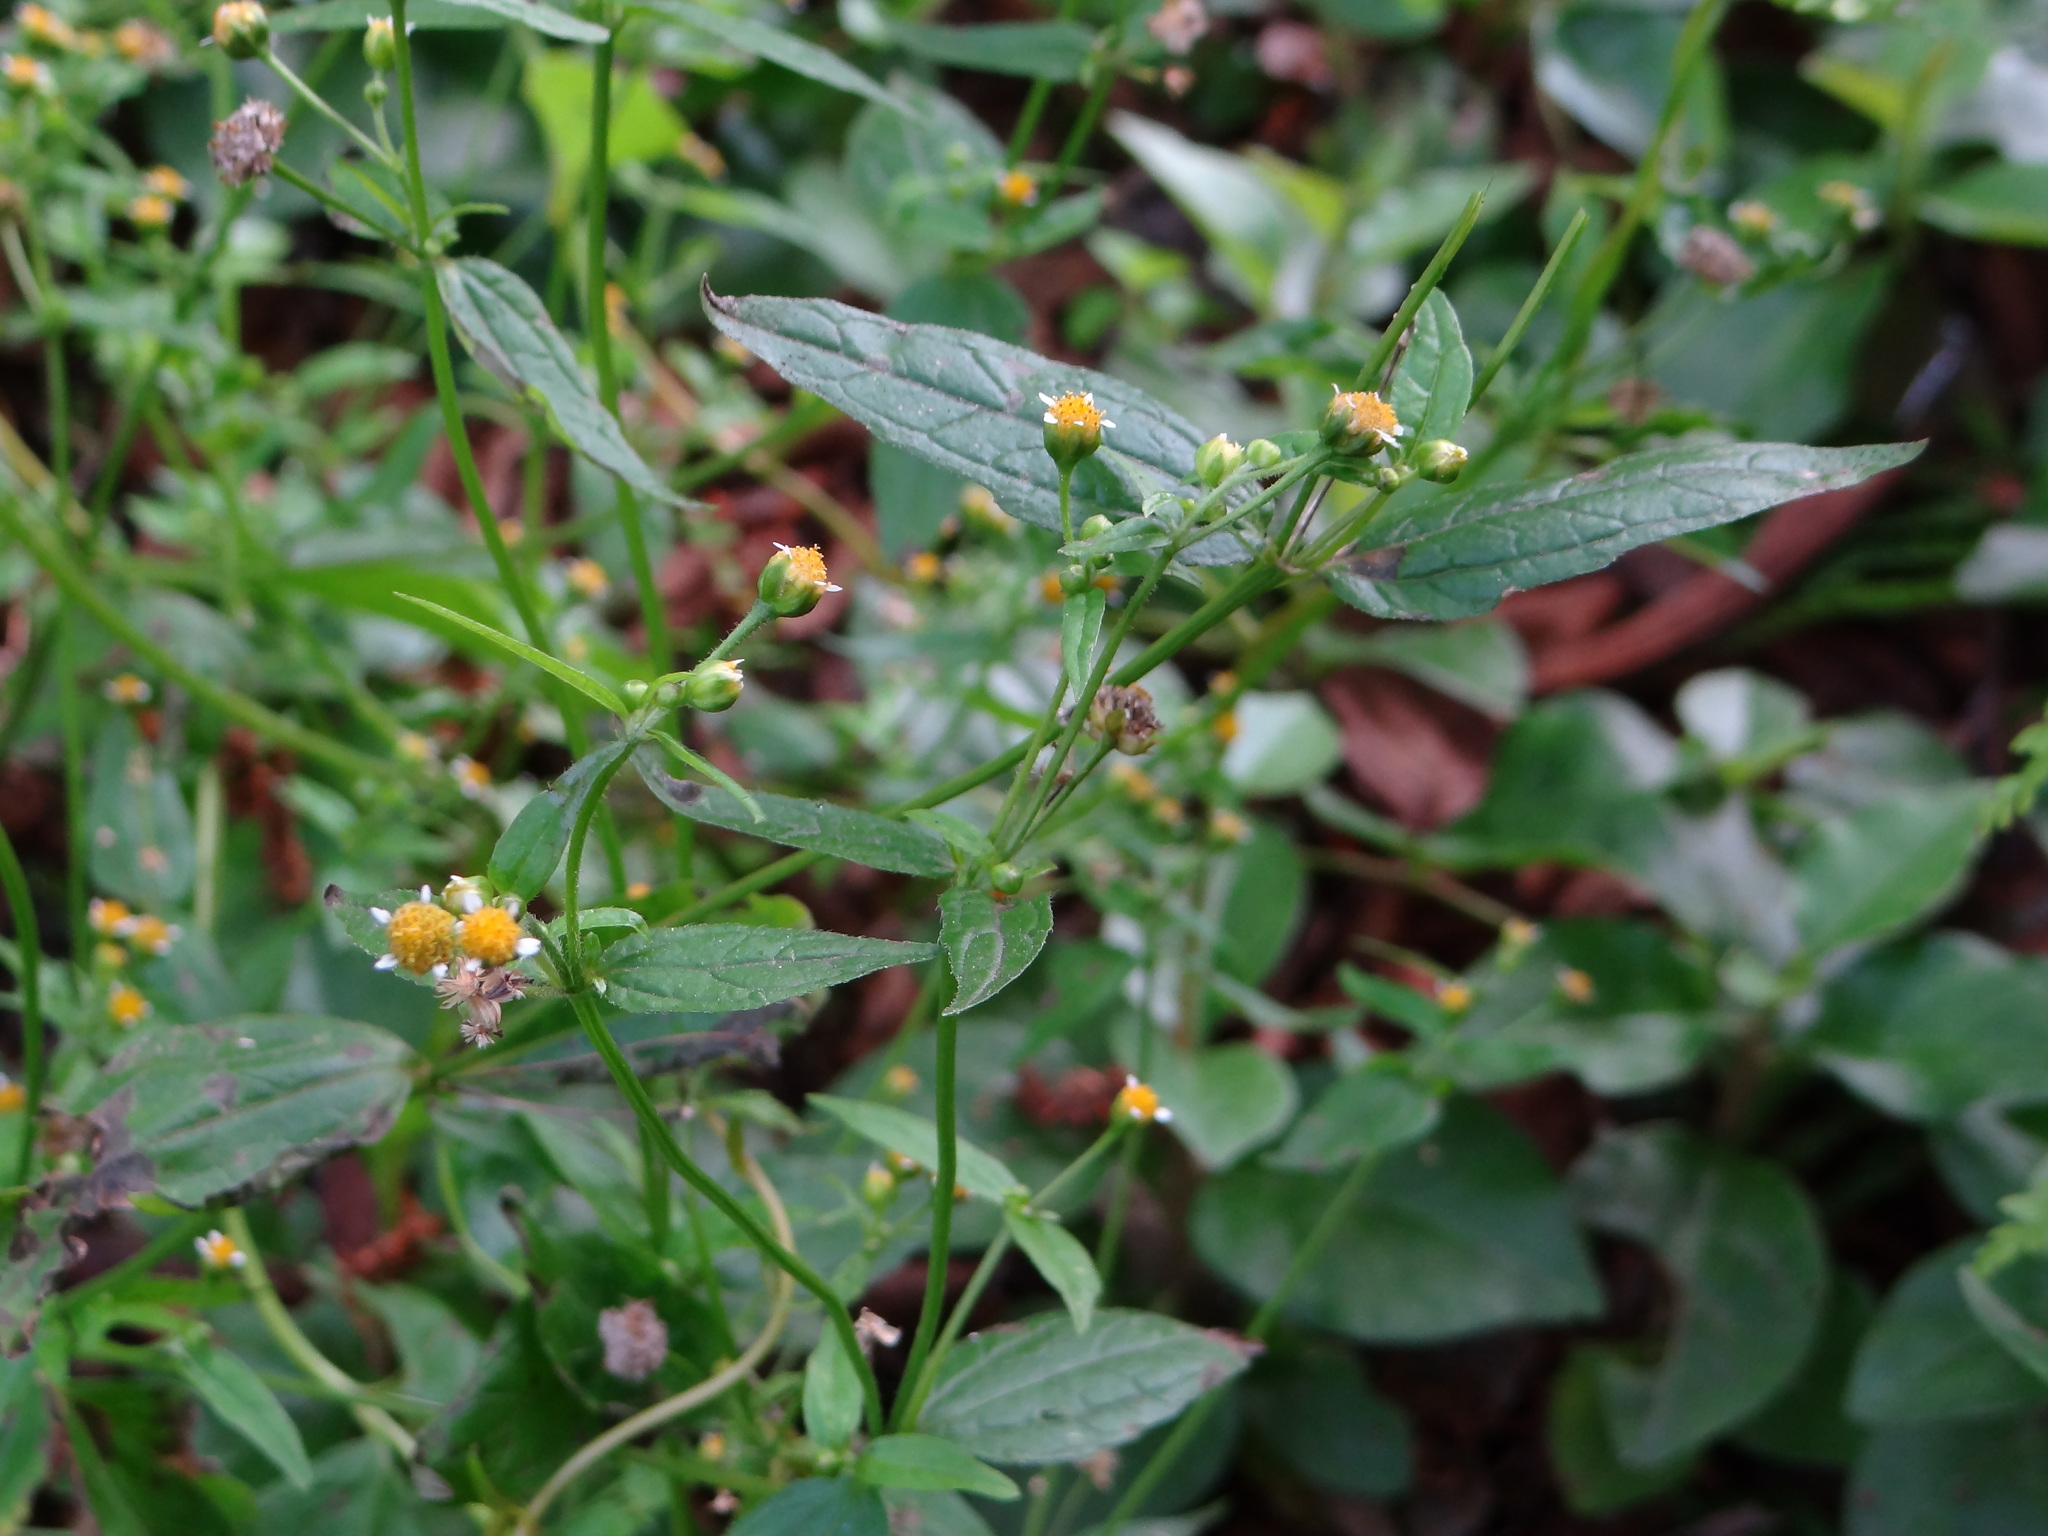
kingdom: Plantae
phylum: Tracheophyta
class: Magnoliopsida
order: Asterales
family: Asteraceae
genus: Galinsoga
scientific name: Galinsoga parviflora
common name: Gallant soldier
